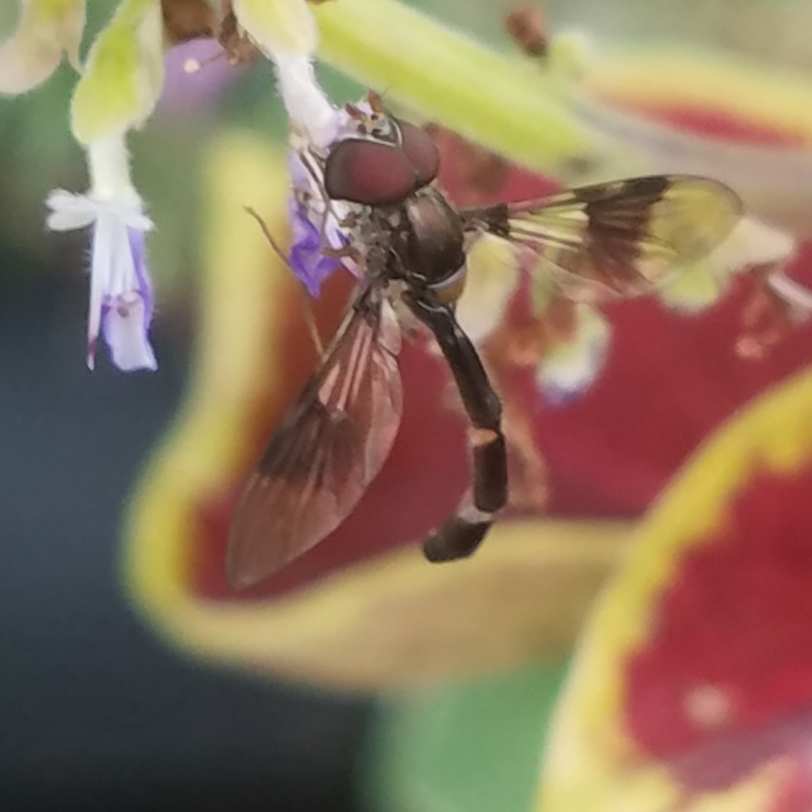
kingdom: Animalia
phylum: Arthropoda
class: Insecta
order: Diptera
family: Syrphidae
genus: Hypocritanus
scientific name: Hypocritanus fascipennis
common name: Eastern band-winged hover fly
